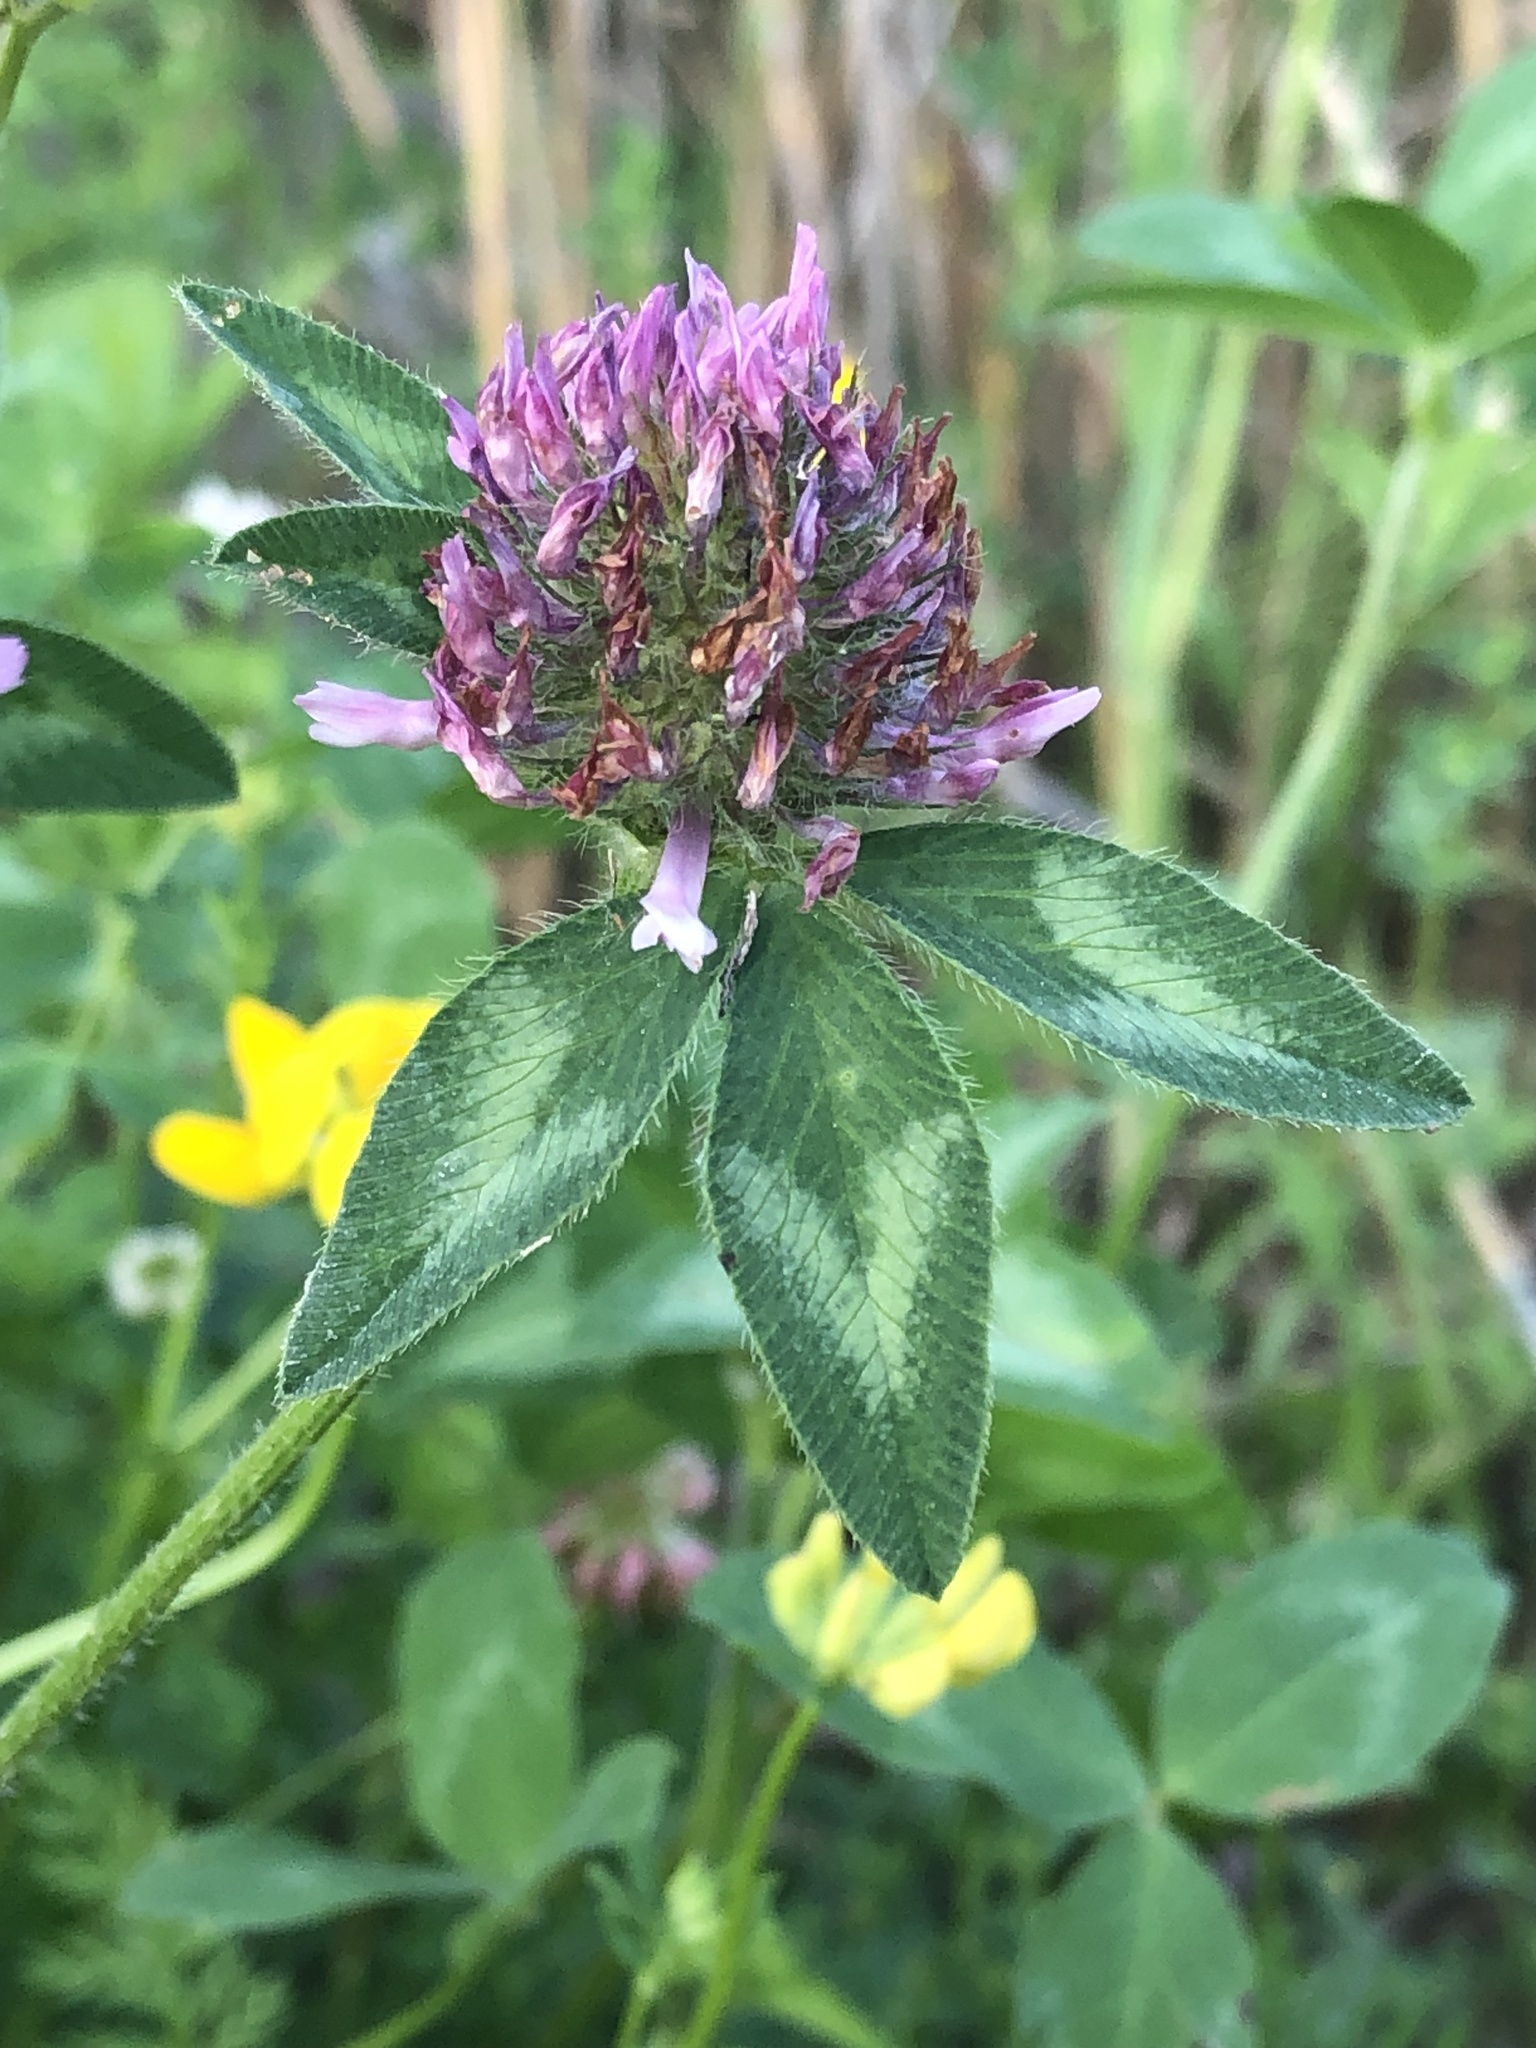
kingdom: Plantae
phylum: Tracheophyta
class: Magnoliopsida
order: Fabales
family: Fabaceae
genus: Trifolium
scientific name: Trifolium pratense
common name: Red clover
